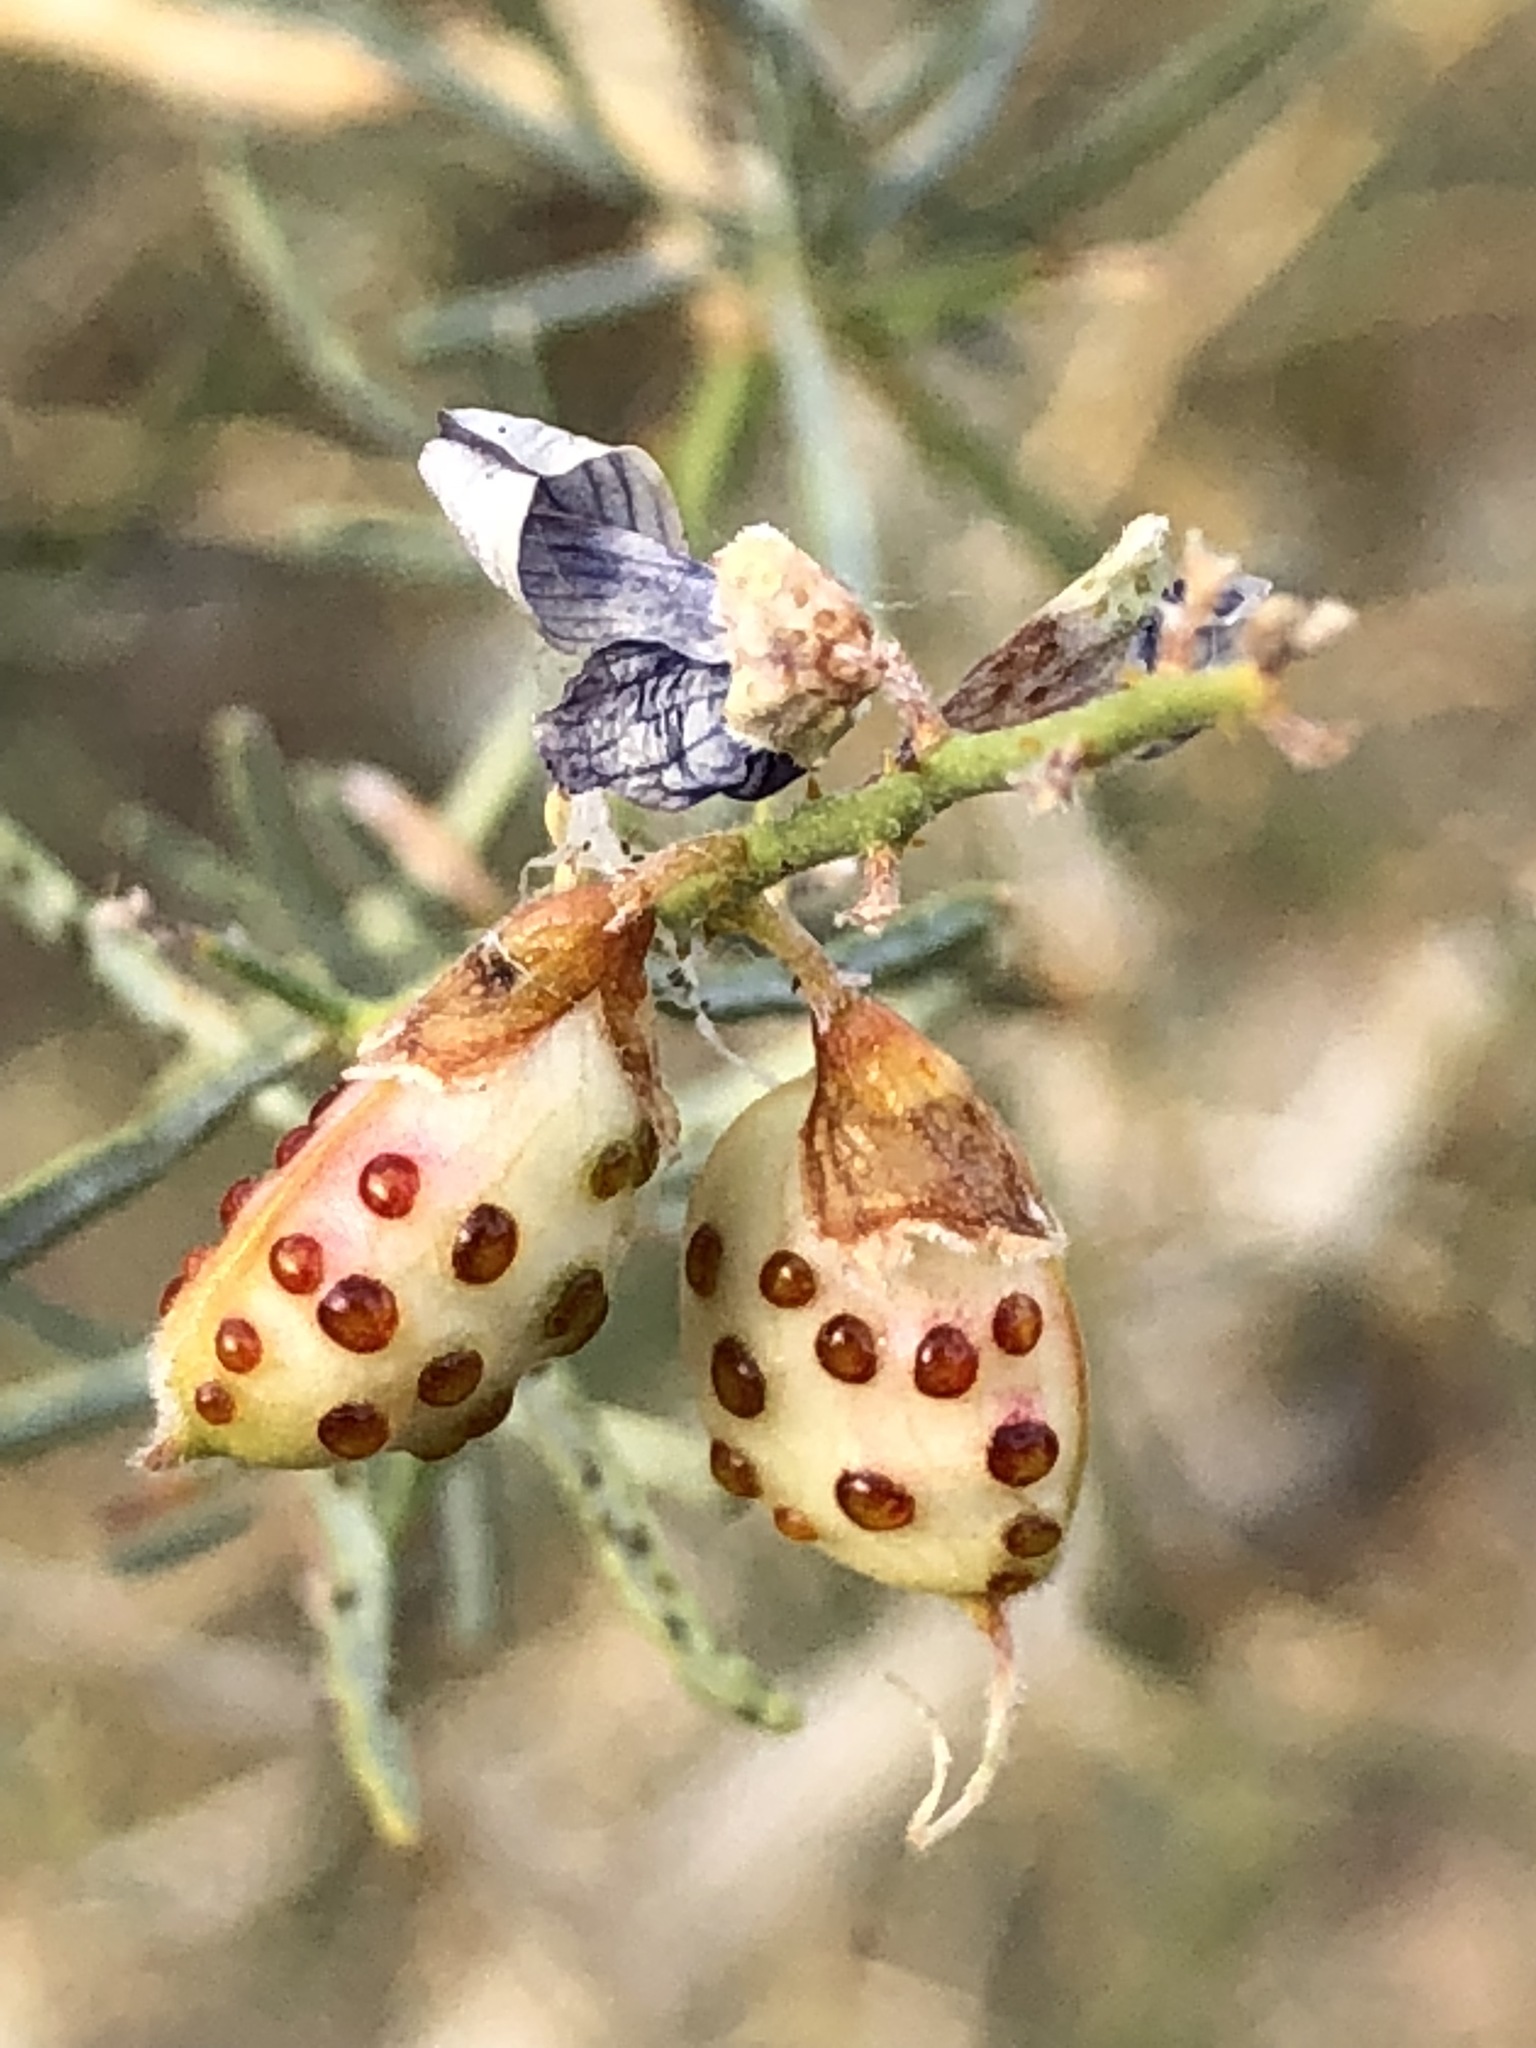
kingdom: Plantae
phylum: Tracheophyta
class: Magnoliopsida
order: Fabales
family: Fabaceae
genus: Psorothamnus
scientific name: Psorothamnus schottii
